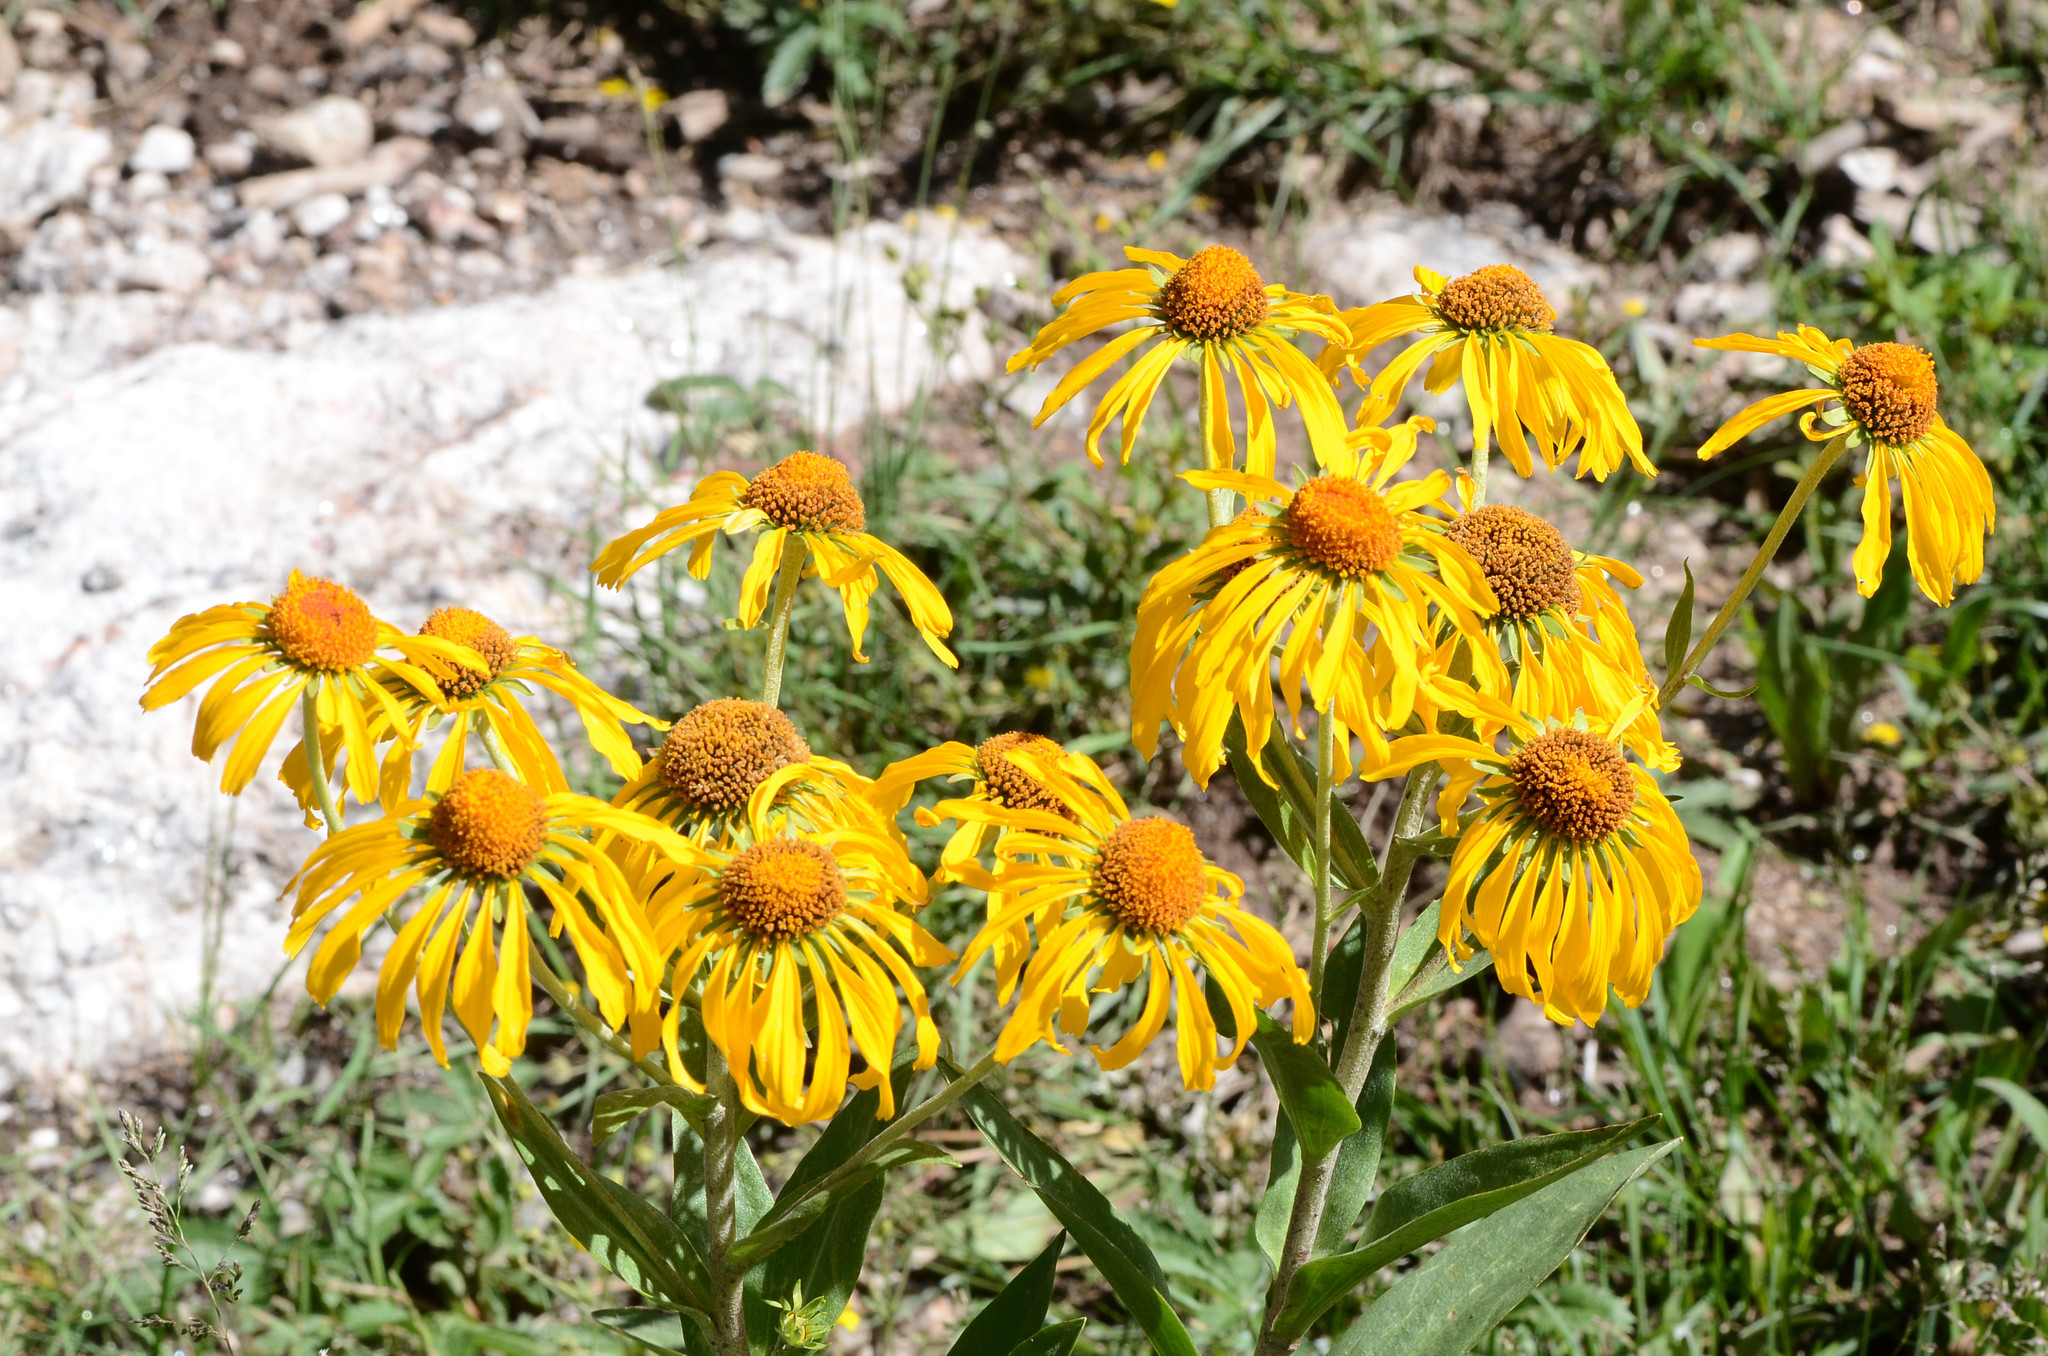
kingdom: Plantae
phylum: Tracheophyta
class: Magnoliopsida
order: Asterales
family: Asteraceae
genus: Hymenoxys
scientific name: Hymenoxys hoopesii
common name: Orange-sneezeweed
